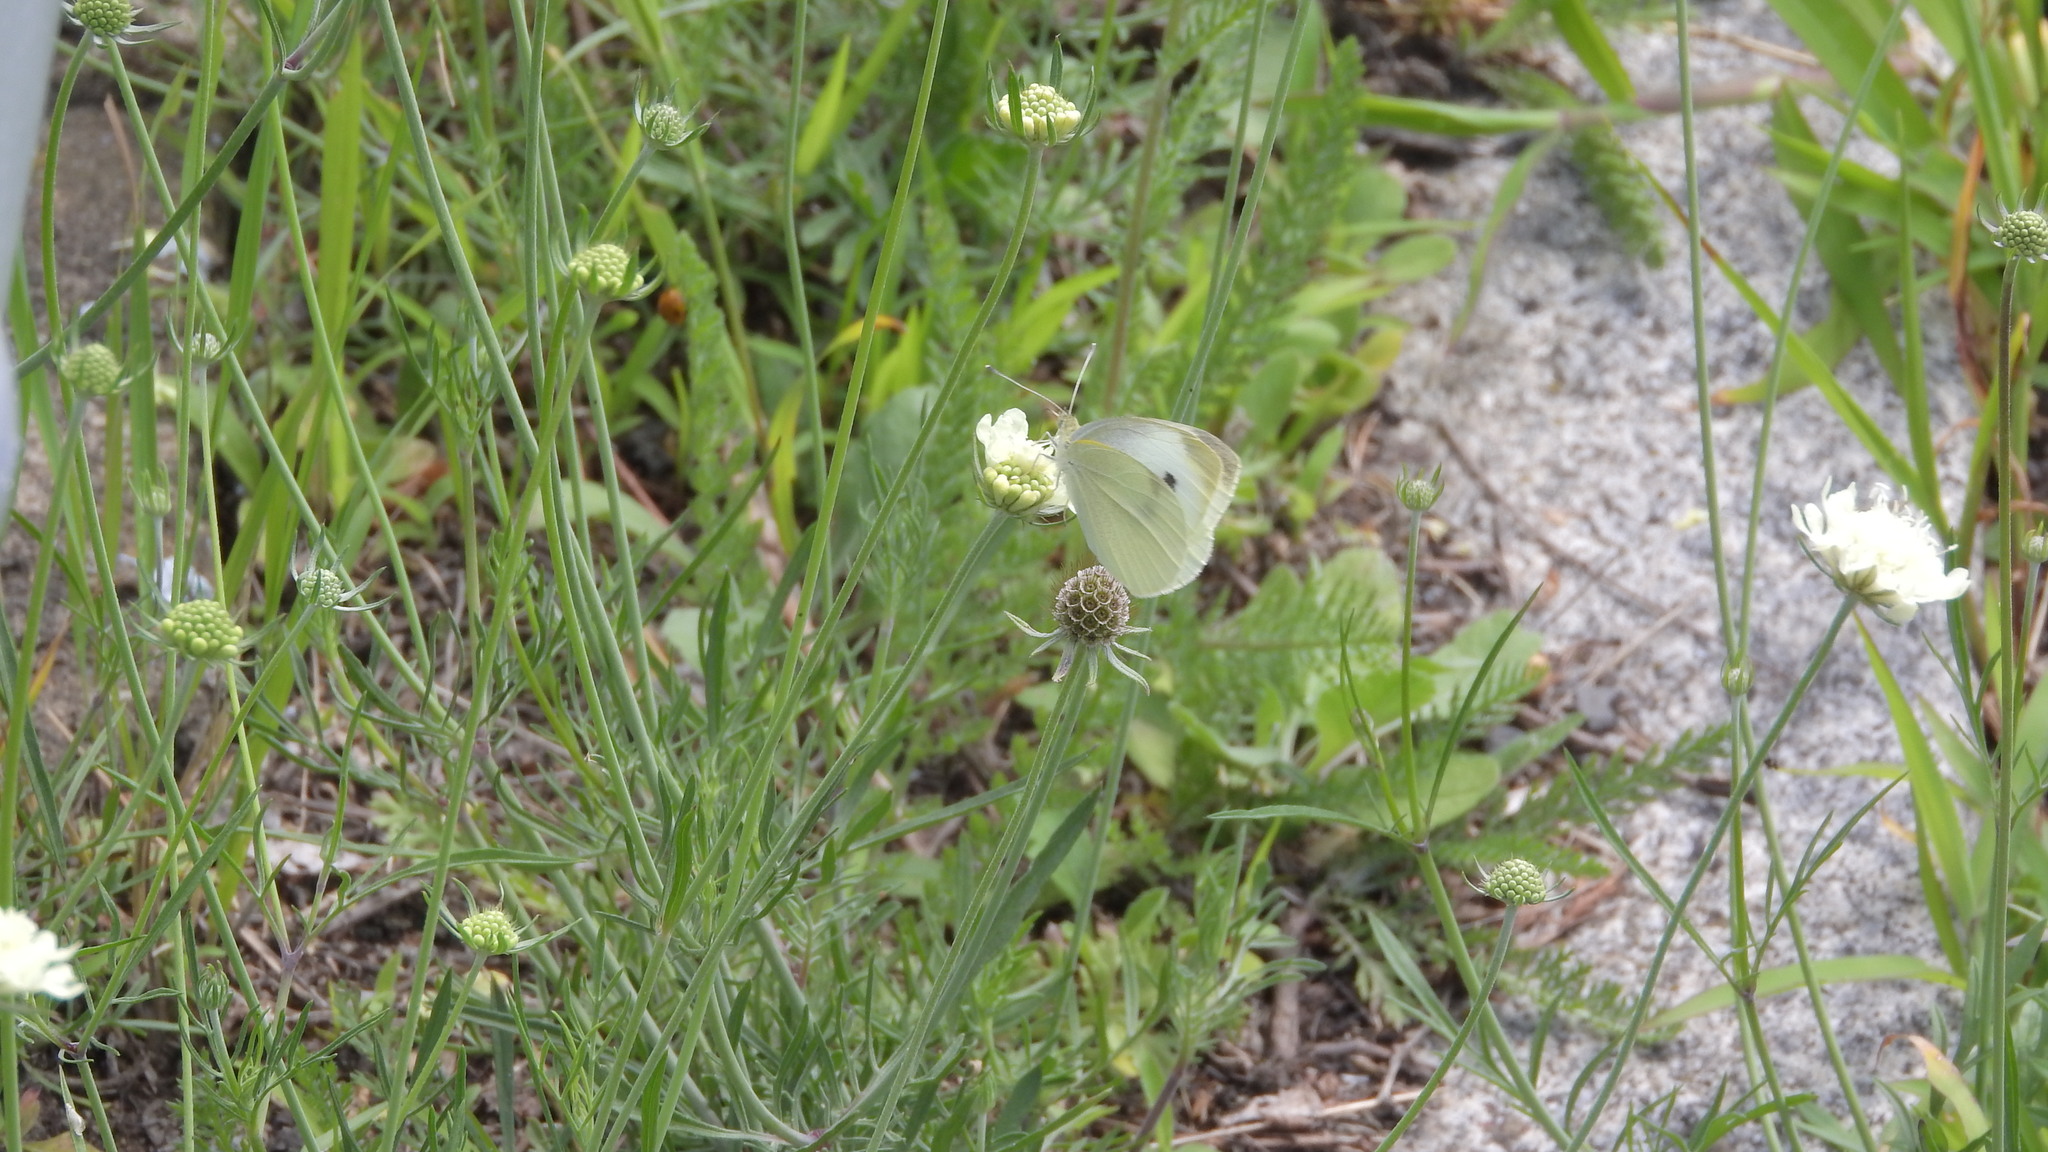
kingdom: Animalia
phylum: Arthropoda
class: Insecta
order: Lepidoptera
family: Pieridae
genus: Pieris
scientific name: Pieris rapae
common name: Small white
